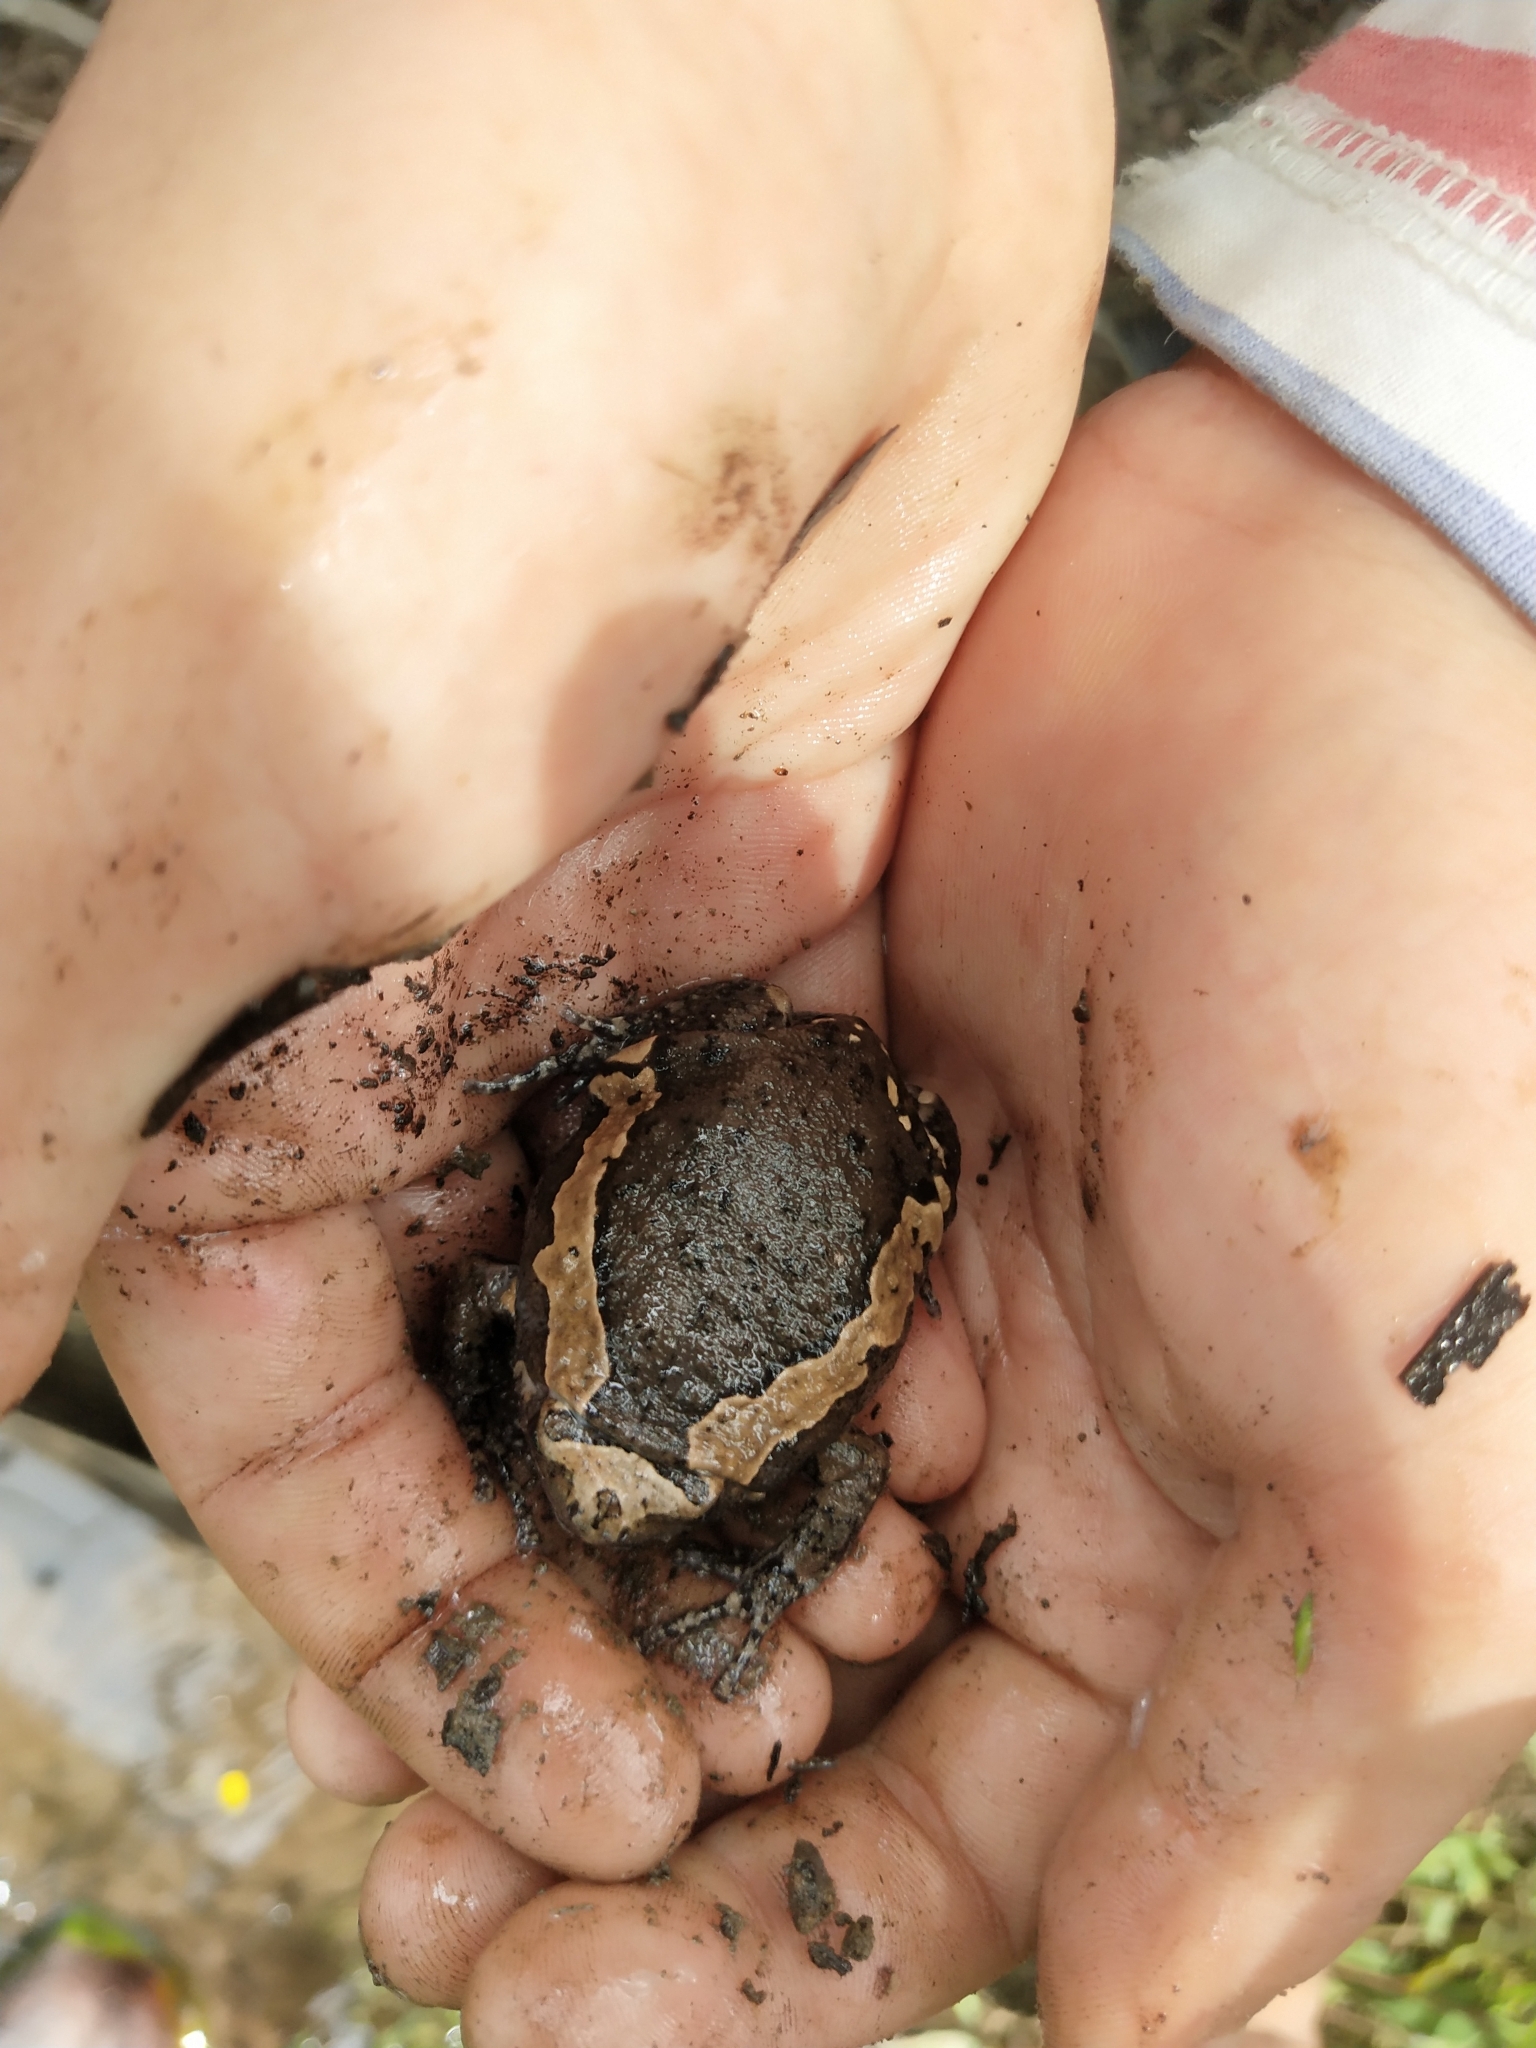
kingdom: Animalia
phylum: Chordata
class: Amphibia
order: Anura
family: Microhylidae
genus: Kaloula
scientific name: Kaloula pulchra
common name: Common,banded bullfrog
